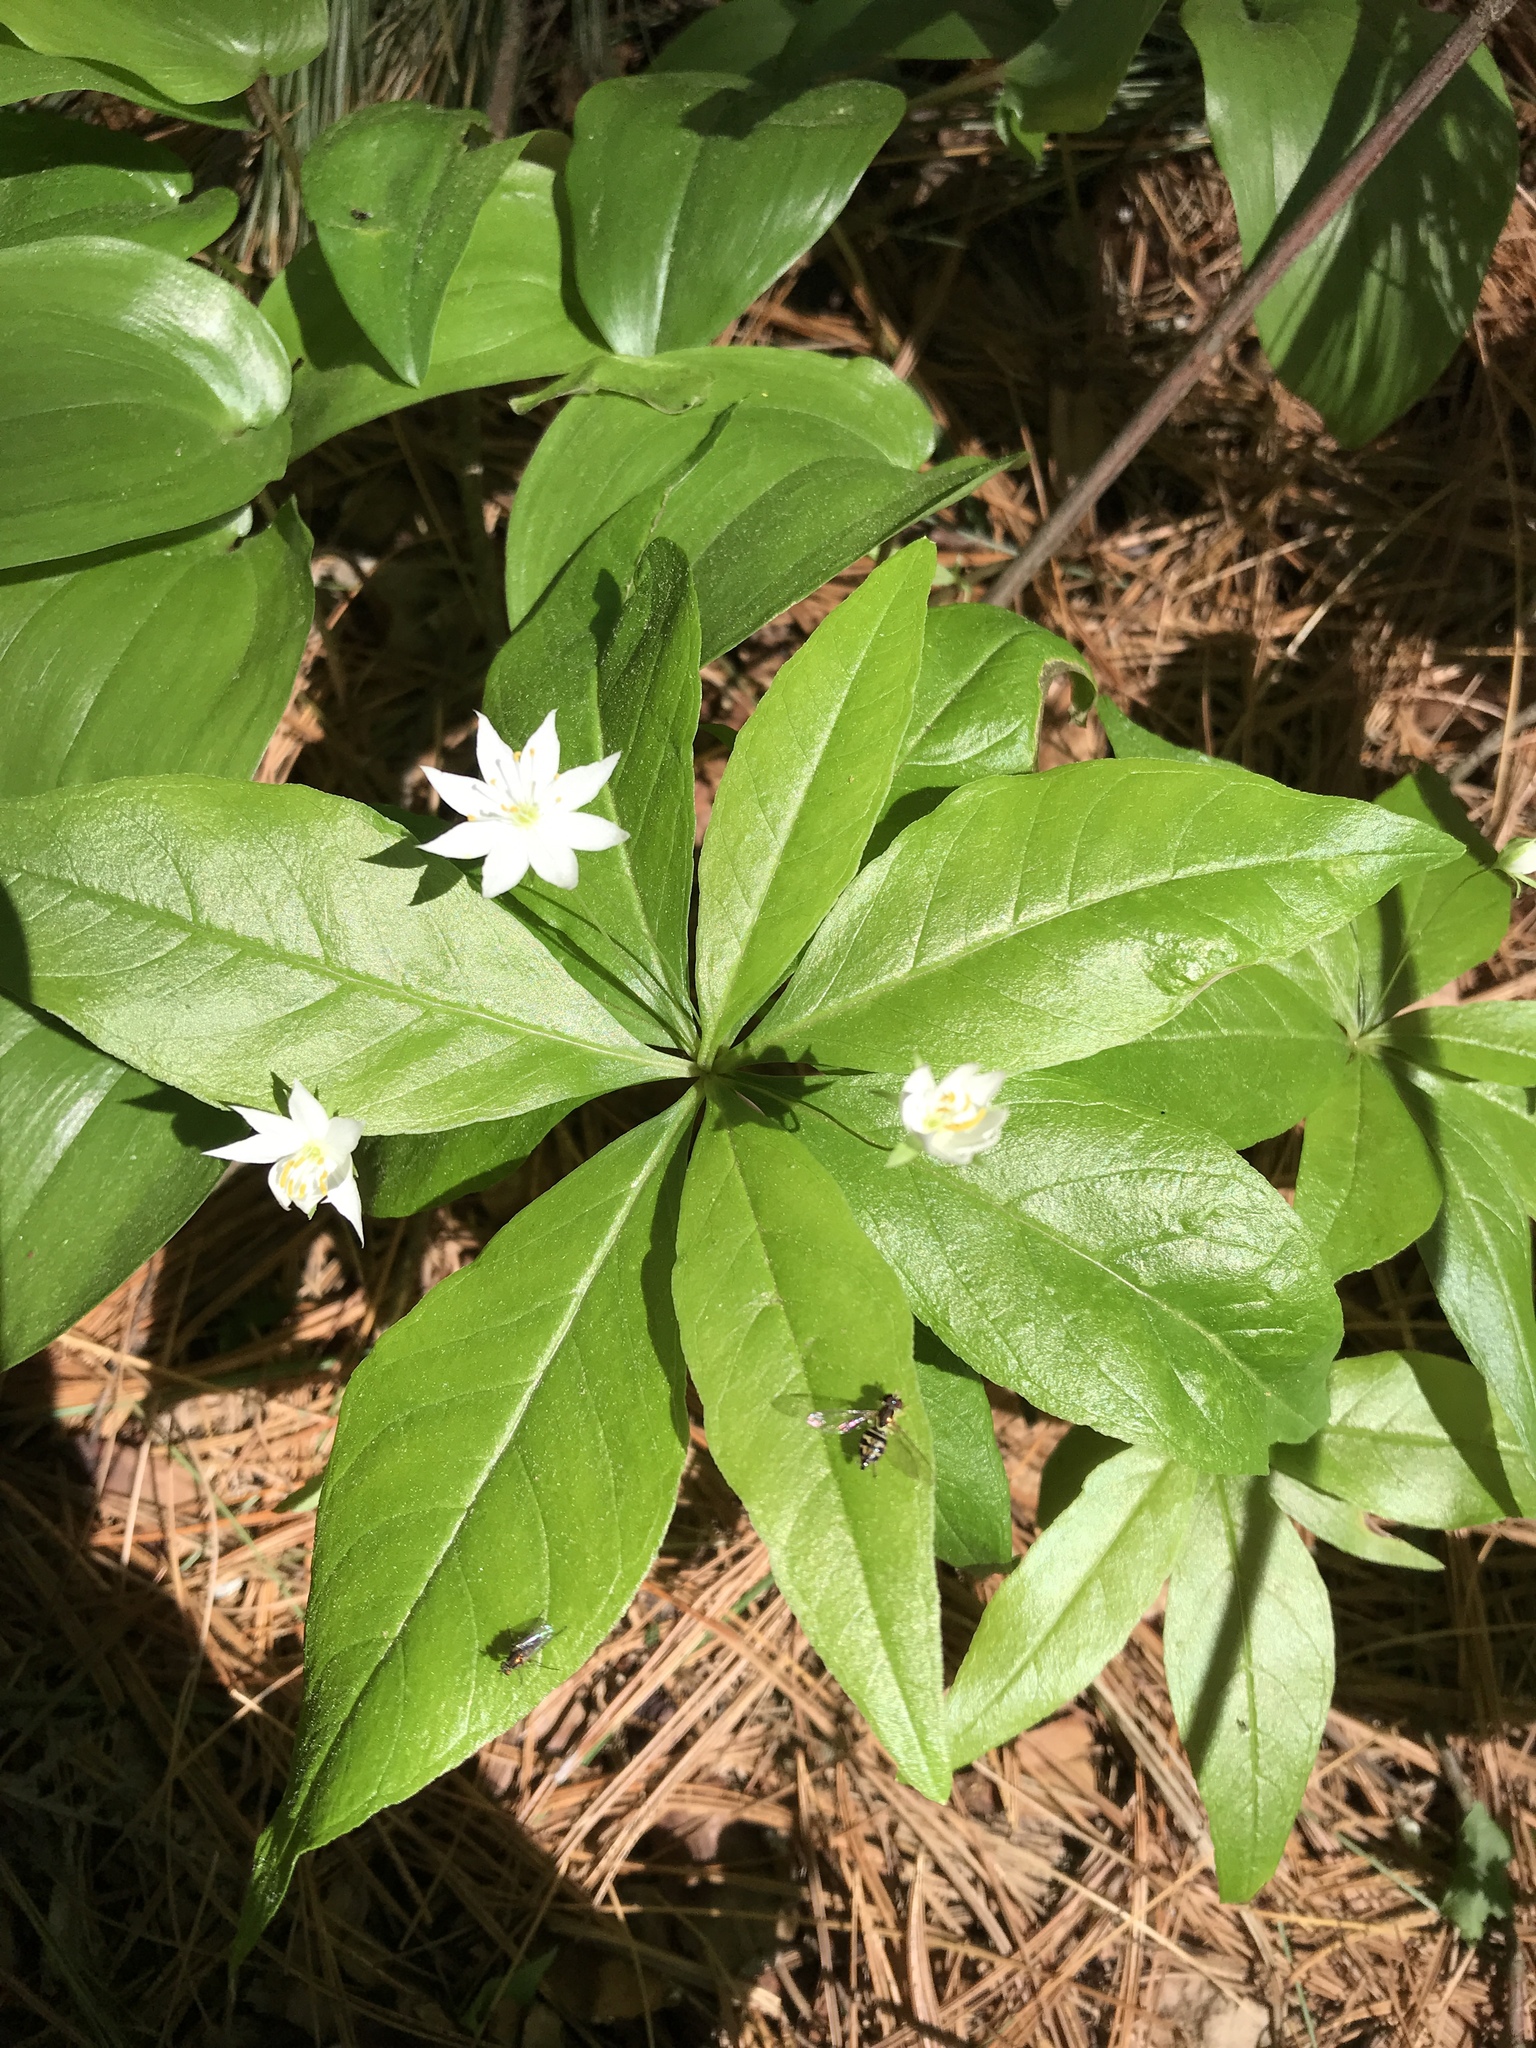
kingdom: Plantae
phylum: Tracheophyta
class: Magnoliopsida
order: Ericales
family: Primulaceae
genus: Lysimachia
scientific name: Lysimachia borealis
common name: American starflower
